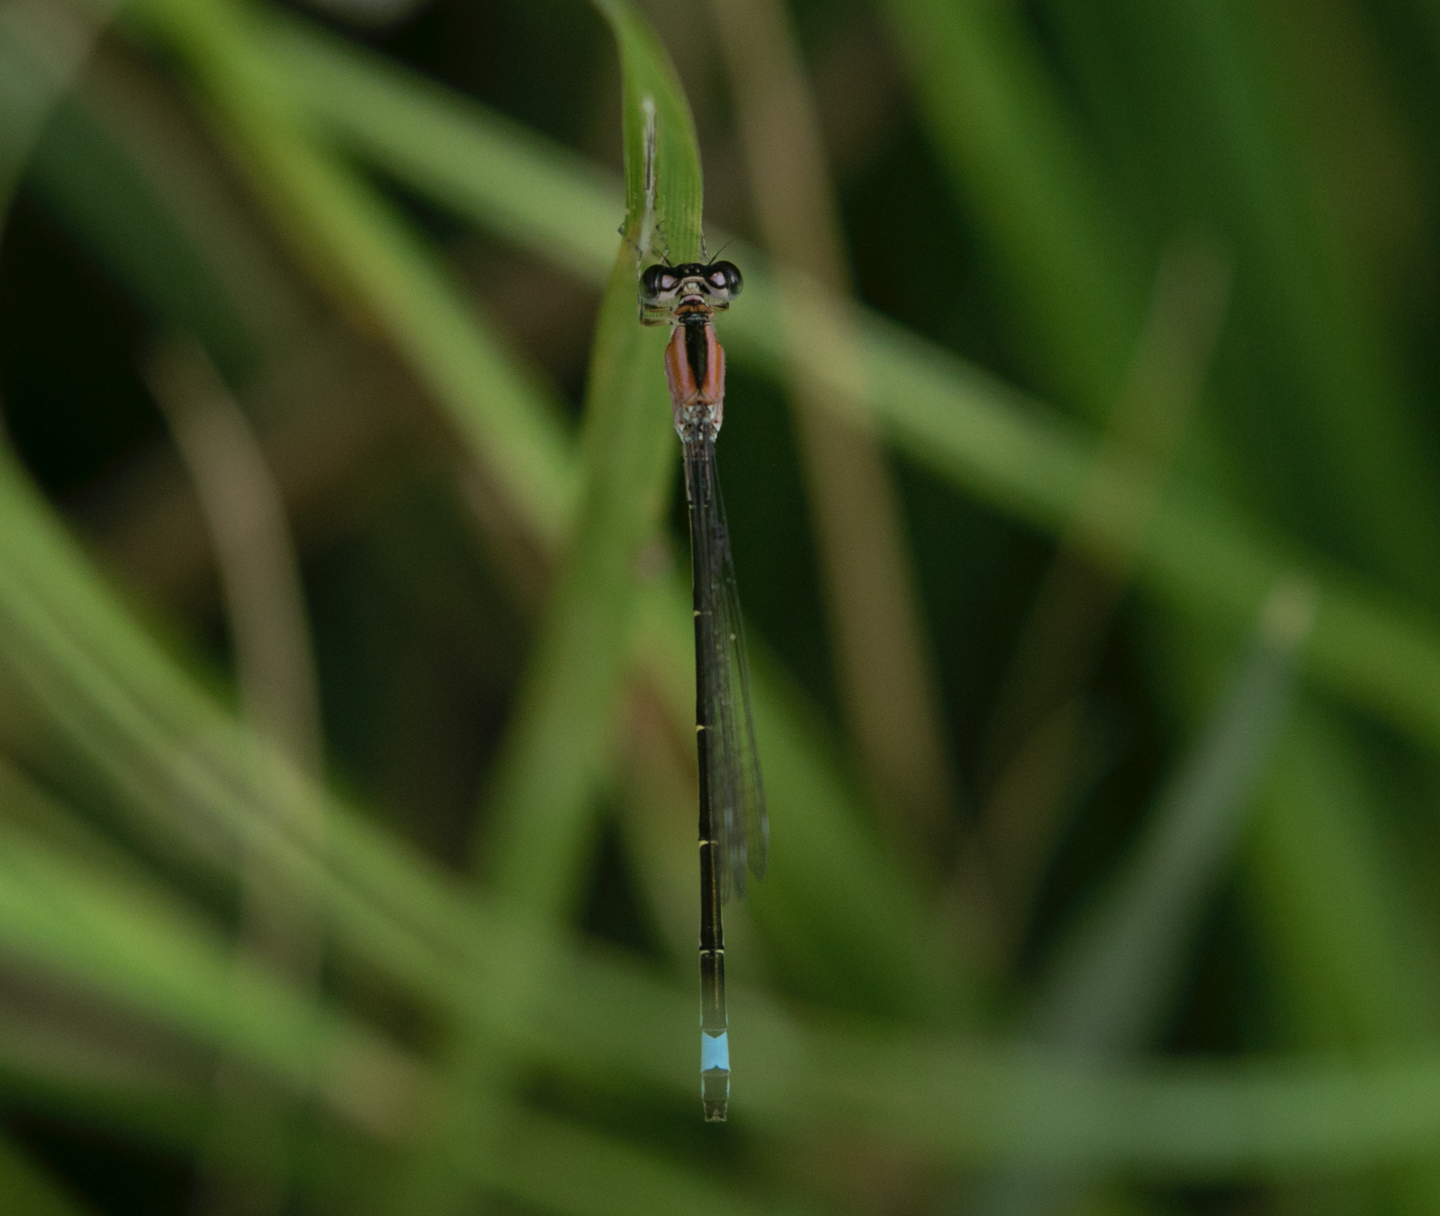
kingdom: Animalia
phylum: Arthropoda
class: Insecta
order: Odonata
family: Coenagrionidae
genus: Ischnura
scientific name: Ischnura elegans
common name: Blue-tailed damselfly
